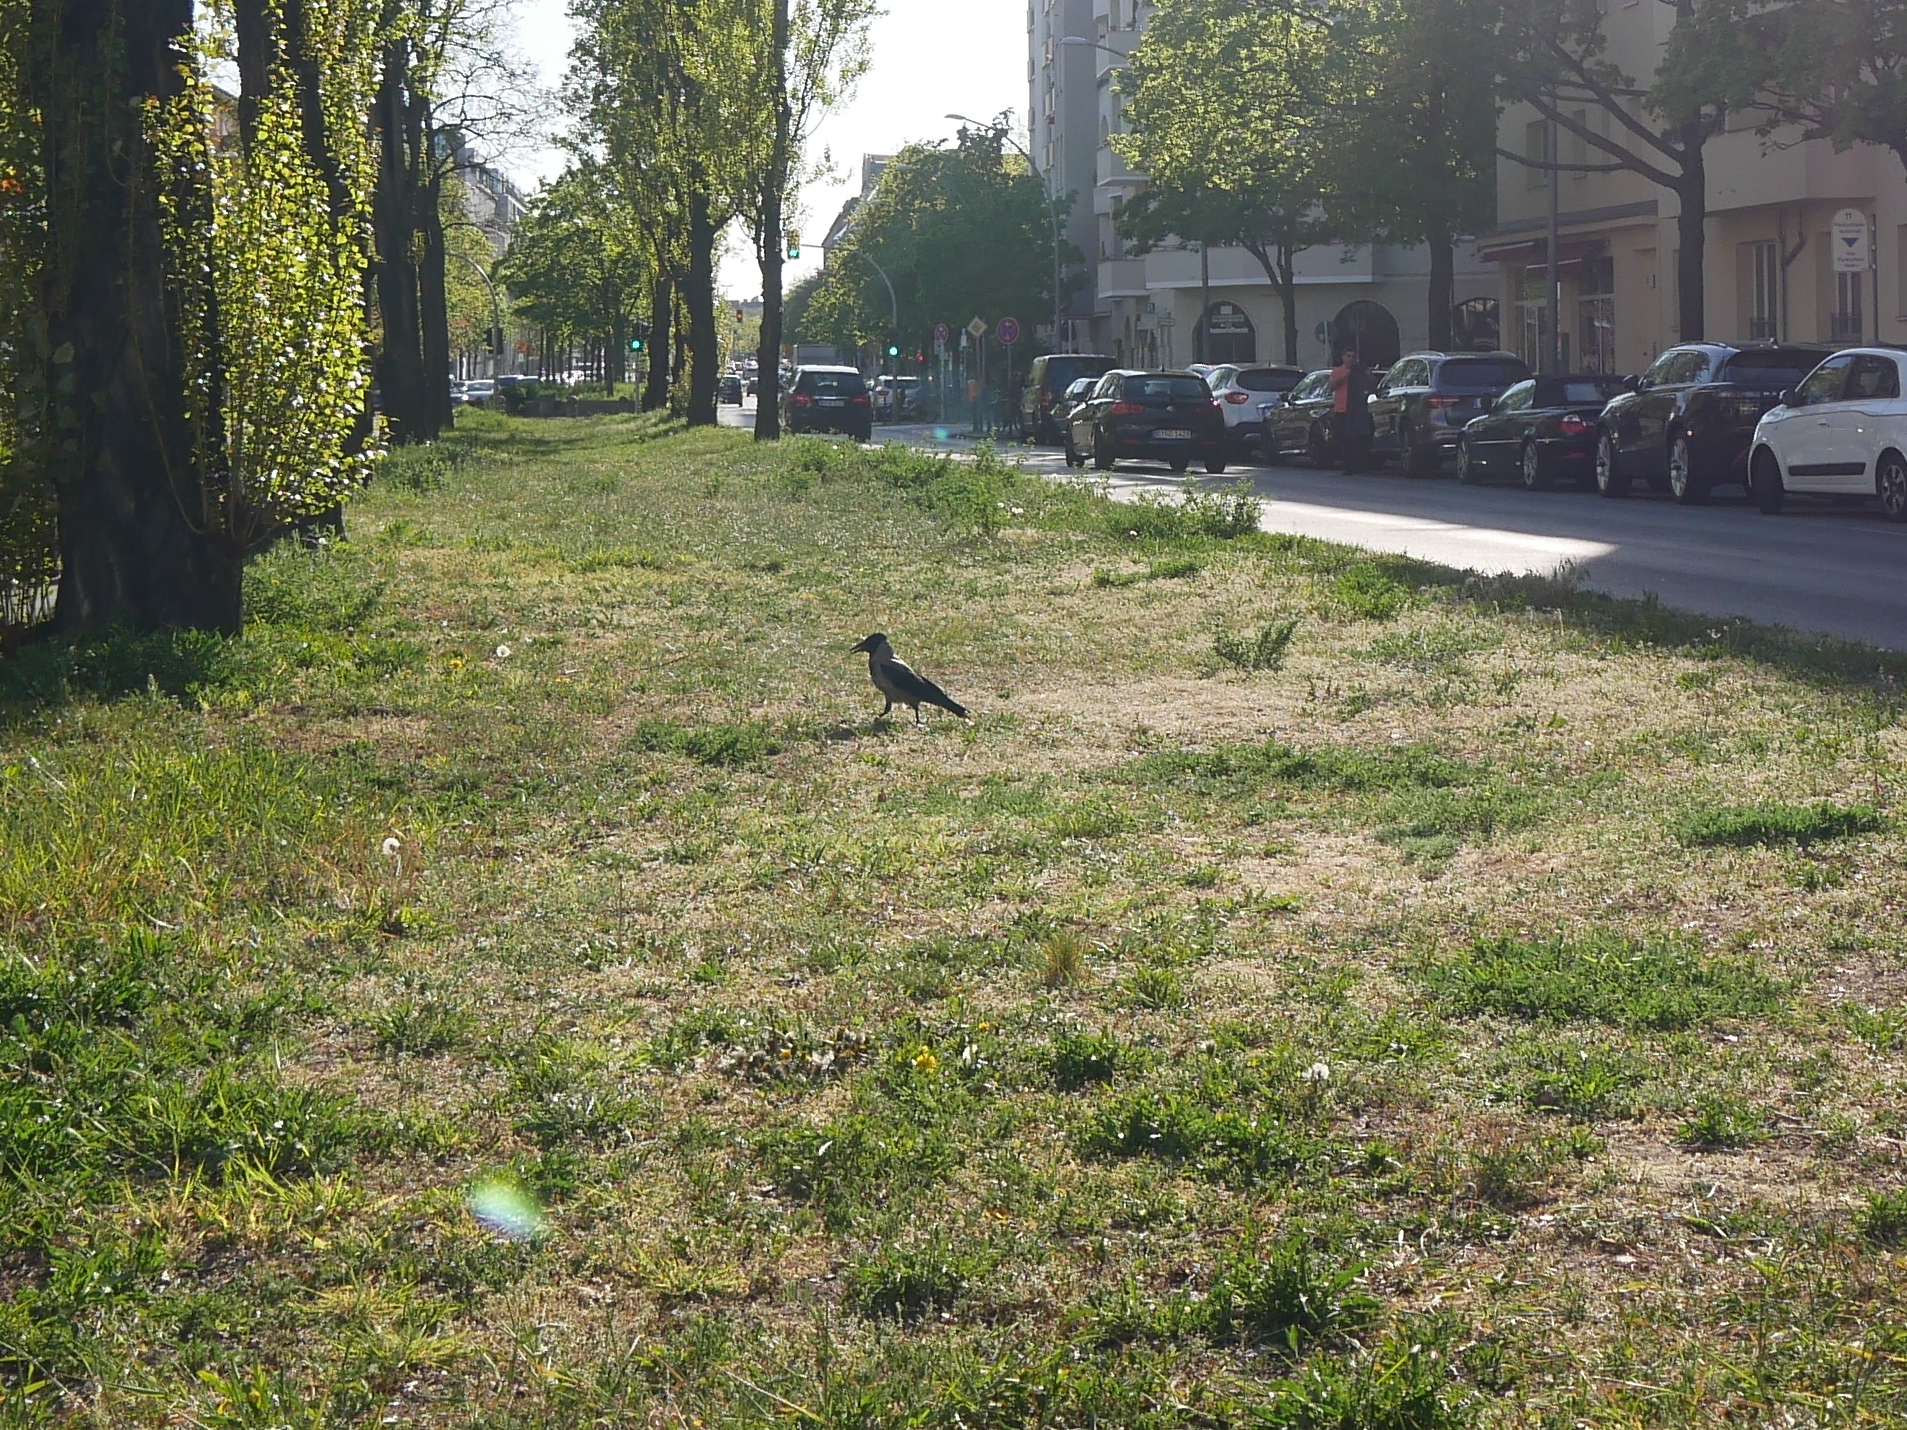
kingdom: Animalia
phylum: Chordata
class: Aves
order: Passeriformes
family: Corvidae
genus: Corvus
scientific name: Corvus cornix
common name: Hooded crow
